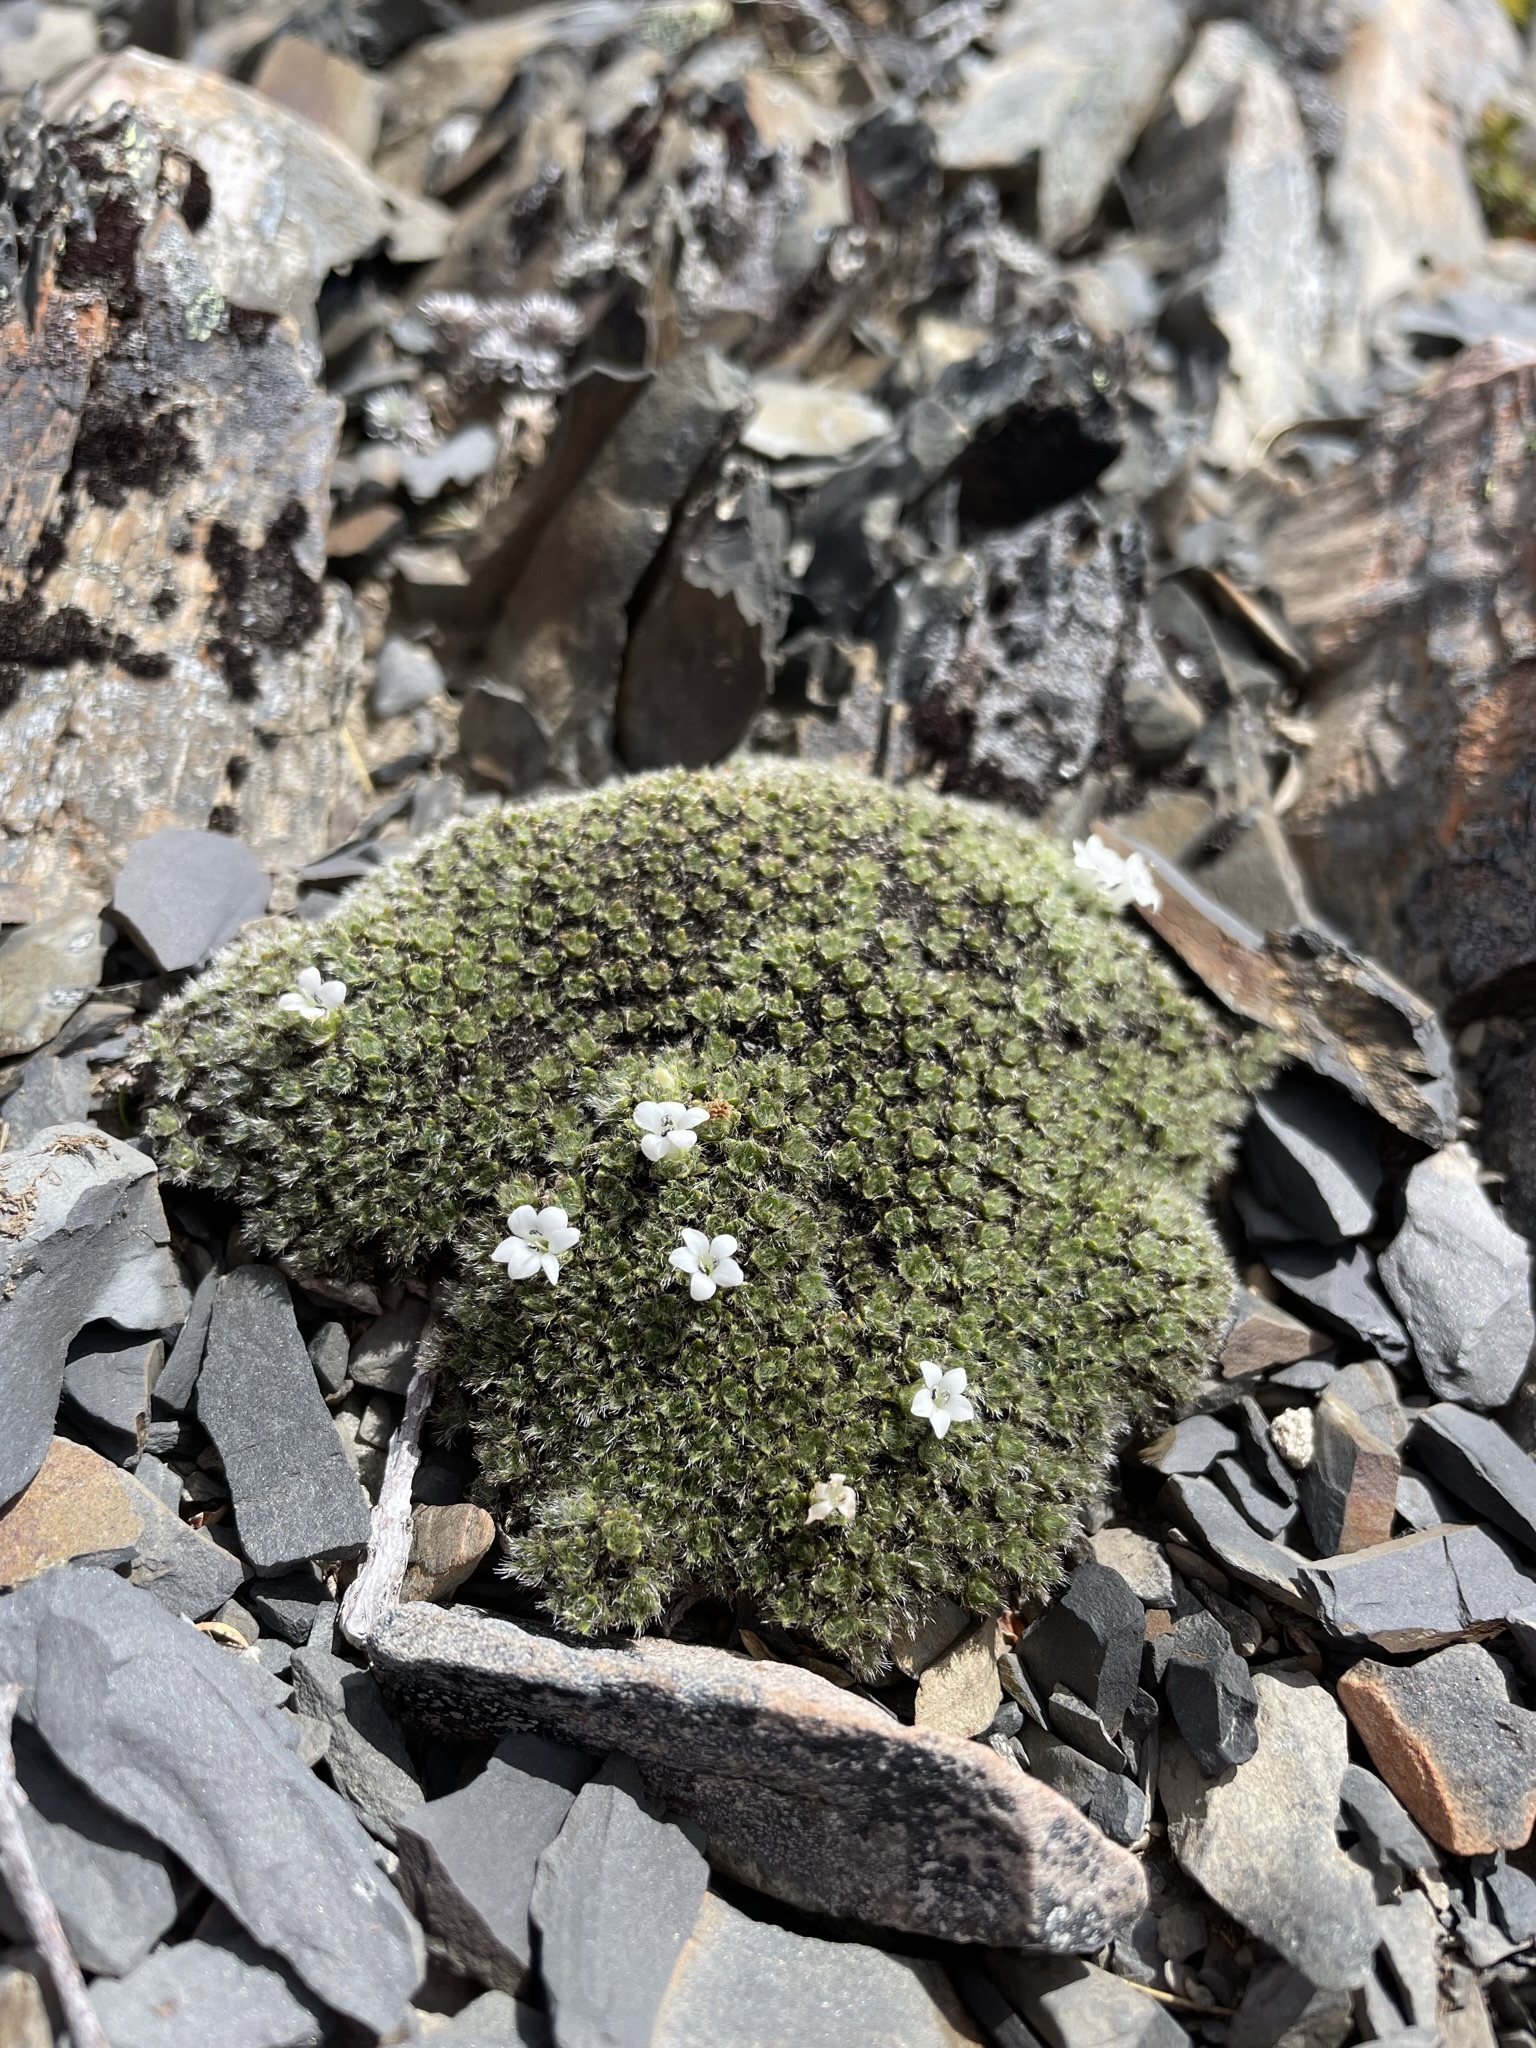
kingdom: Plantae
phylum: Tracheophyta
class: Magnoliopsida
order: Lamiales
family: Plantaginaceae
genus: Veronica
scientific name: Veronica pulvinaris
